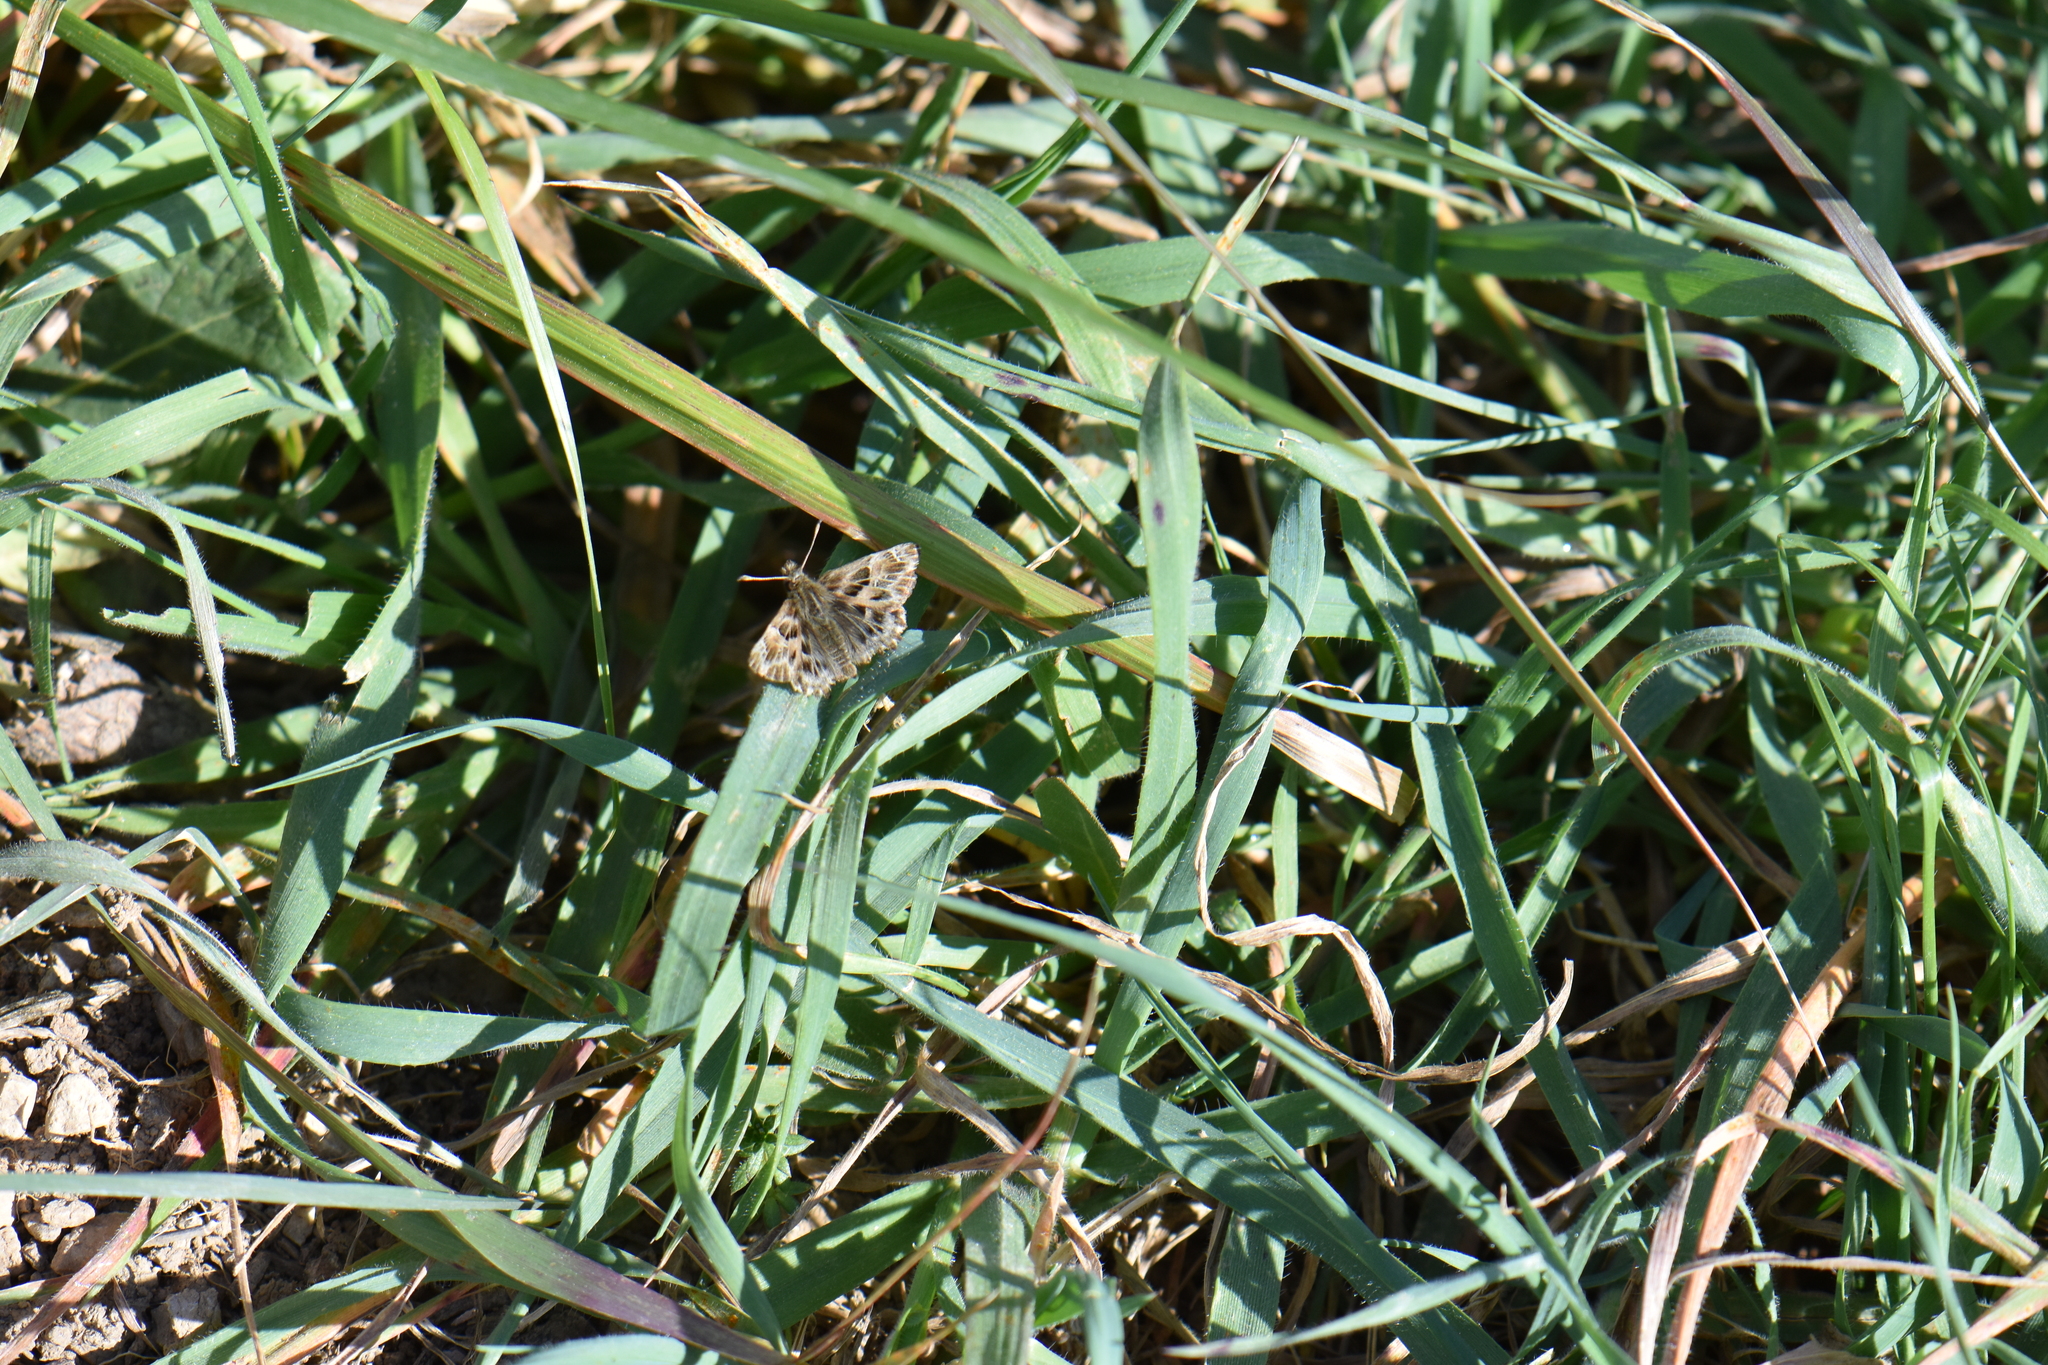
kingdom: Animalia
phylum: Arthropoda
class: Insecta
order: Lepidoptera
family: Hesperiidae
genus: Carcharodus
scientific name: Carcharodus alceae
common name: Mallow skipper
